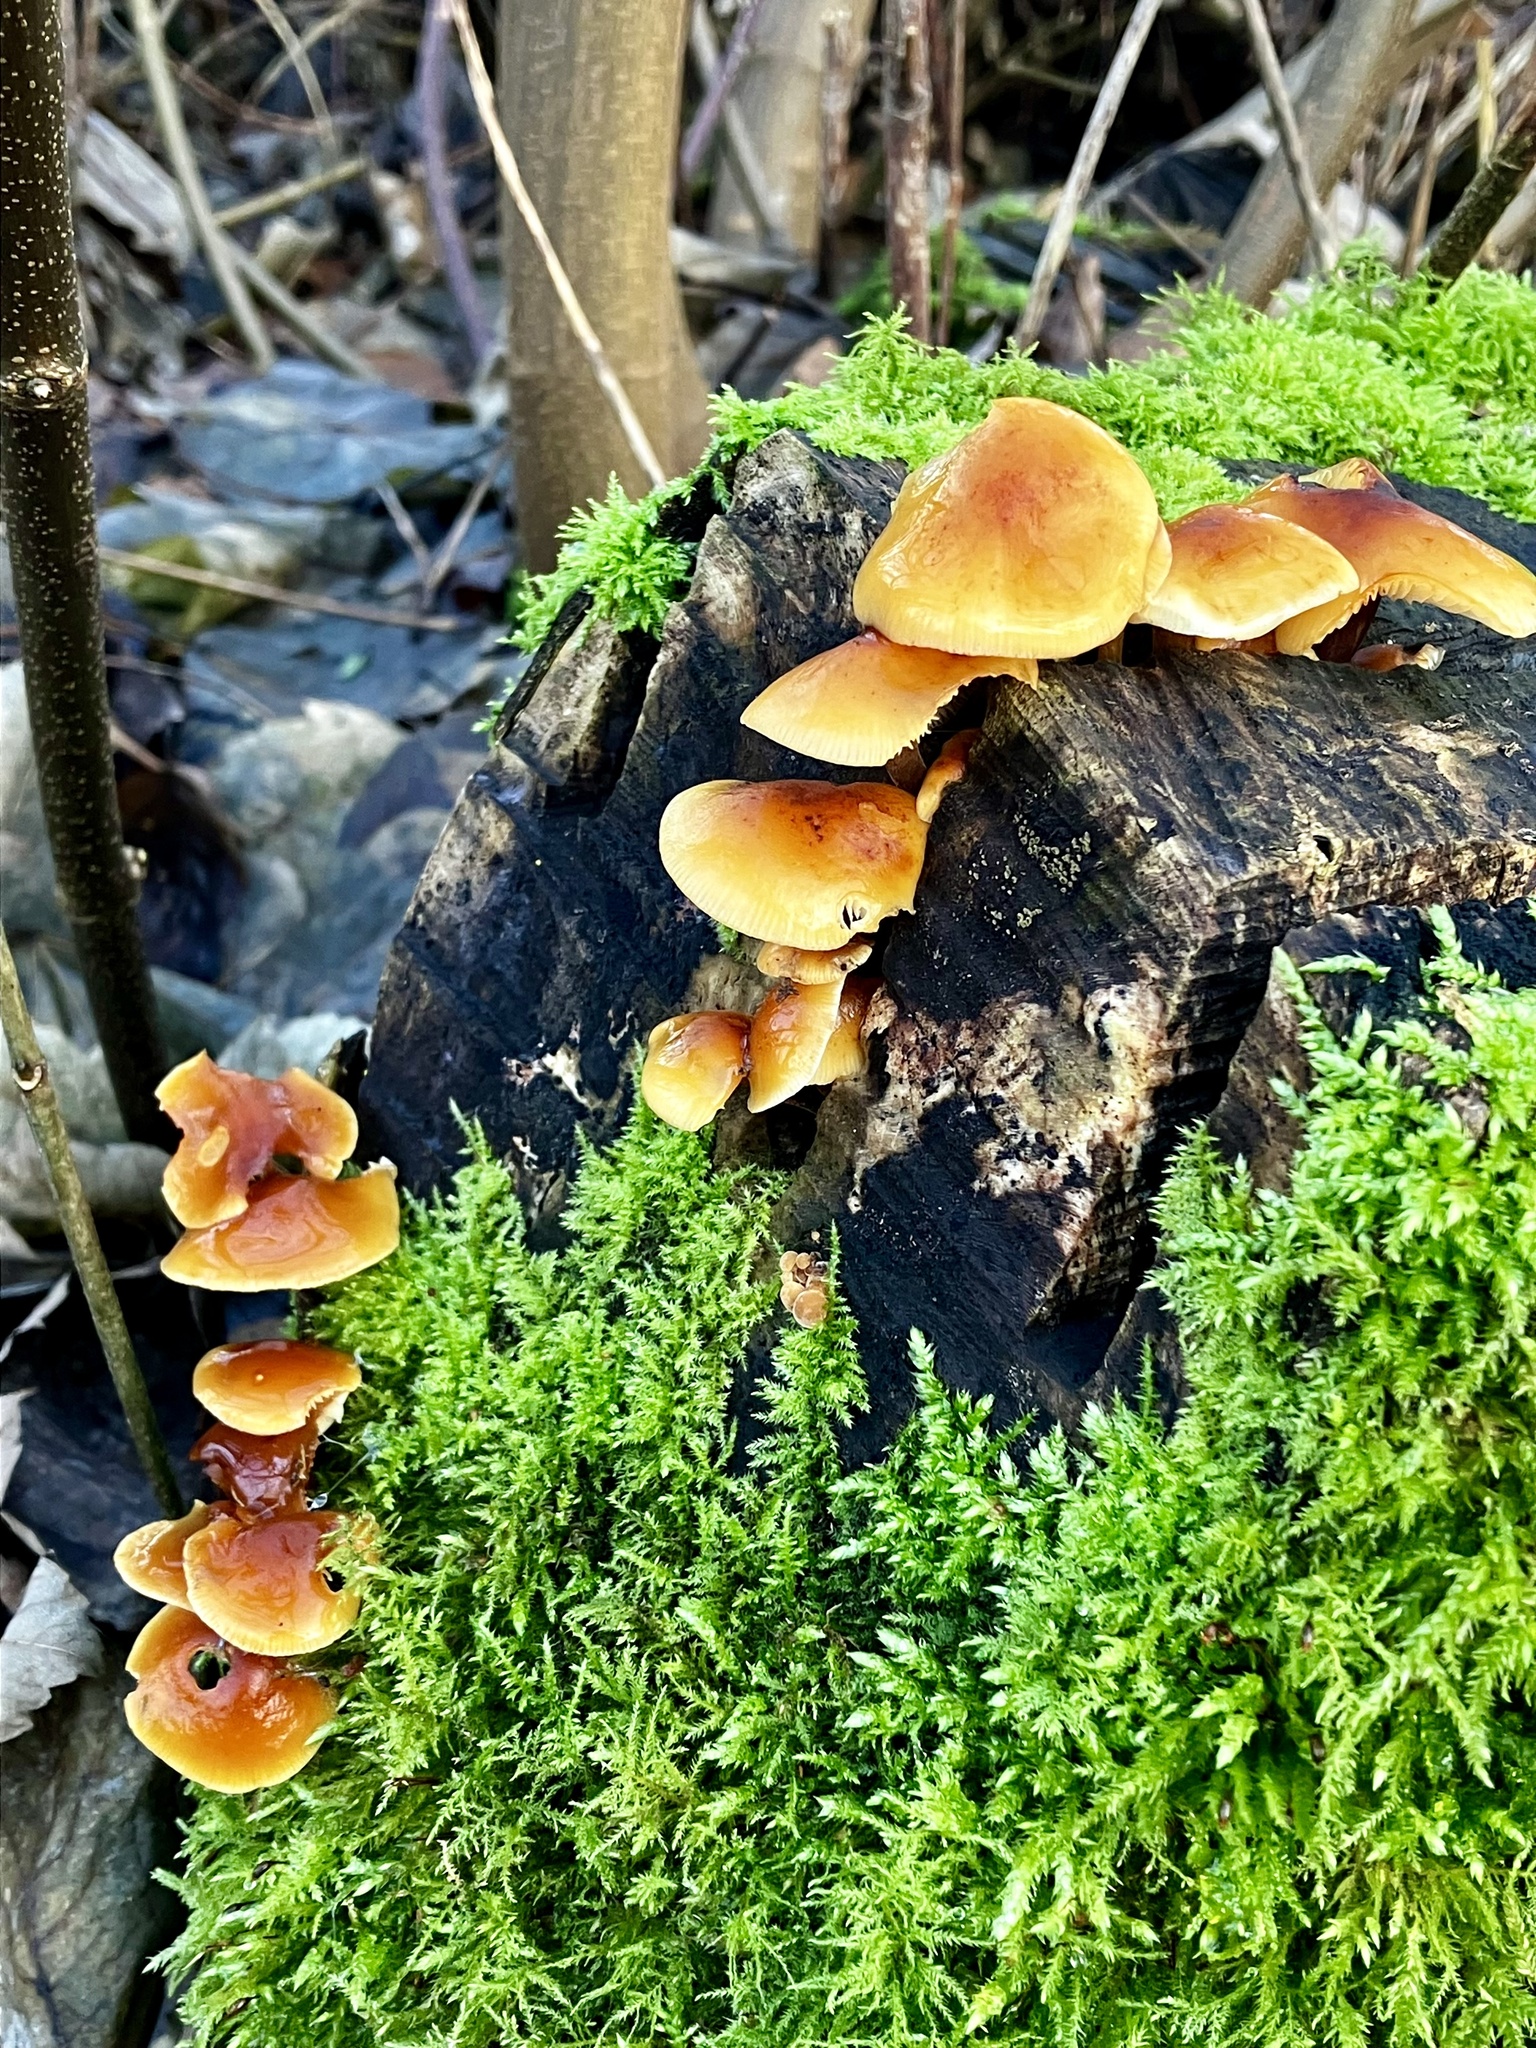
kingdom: Fungi
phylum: Basidiomycota
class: Agaricomycetes
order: Agaricales
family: Physalacriaceae
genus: Flammulina
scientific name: Flammulina
